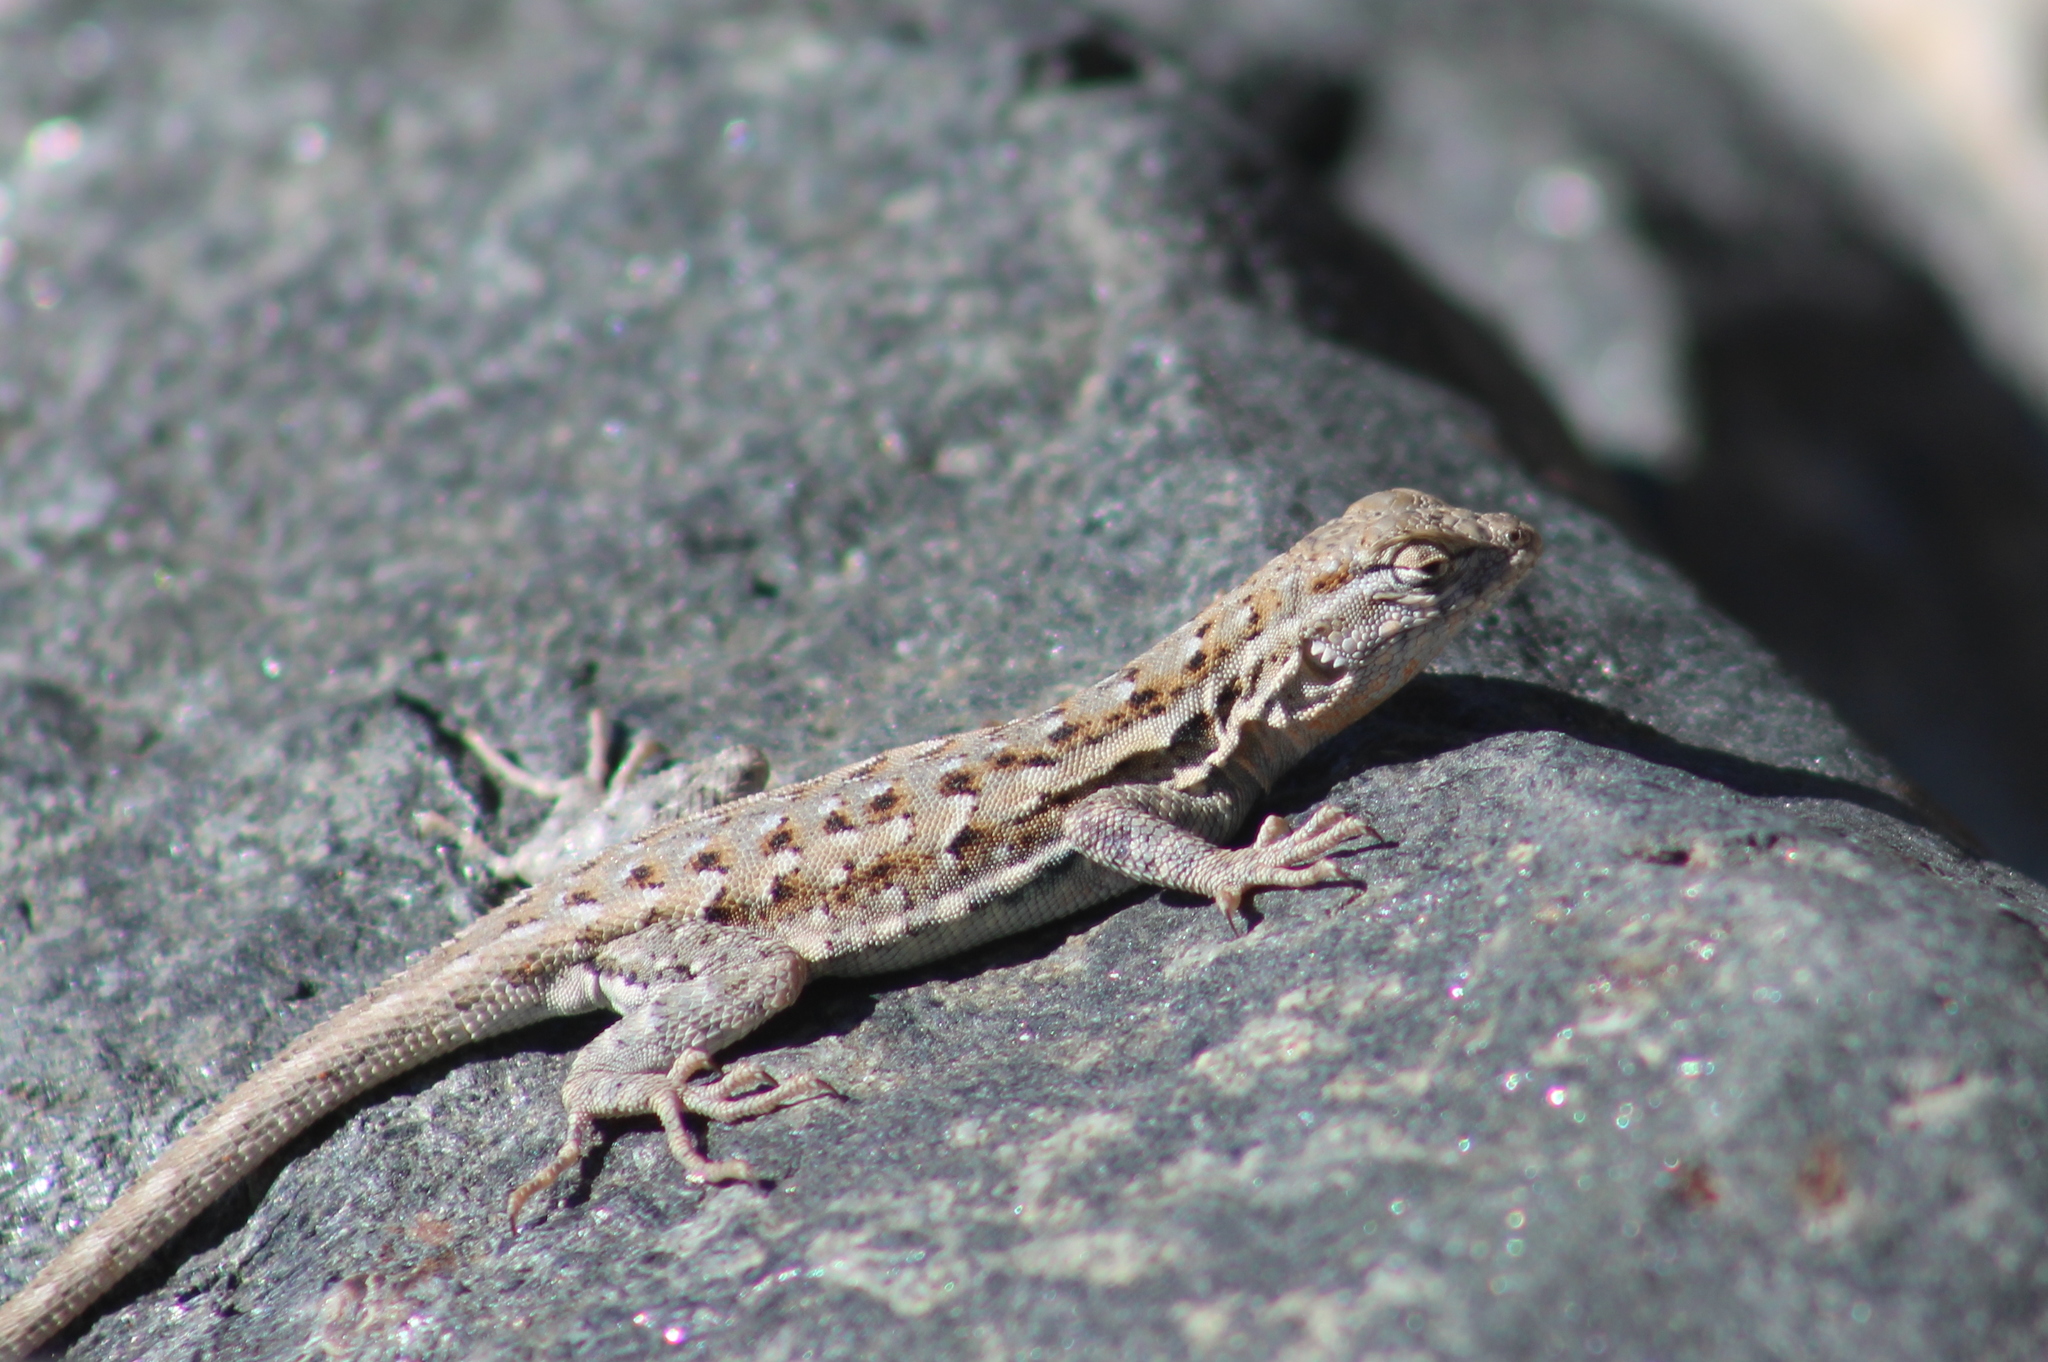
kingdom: Animalia
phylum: Chordata
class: Squamata
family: Phrynosomatidae
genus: Uta
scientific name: Uta stansburiana
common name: Side-blotched lizard
